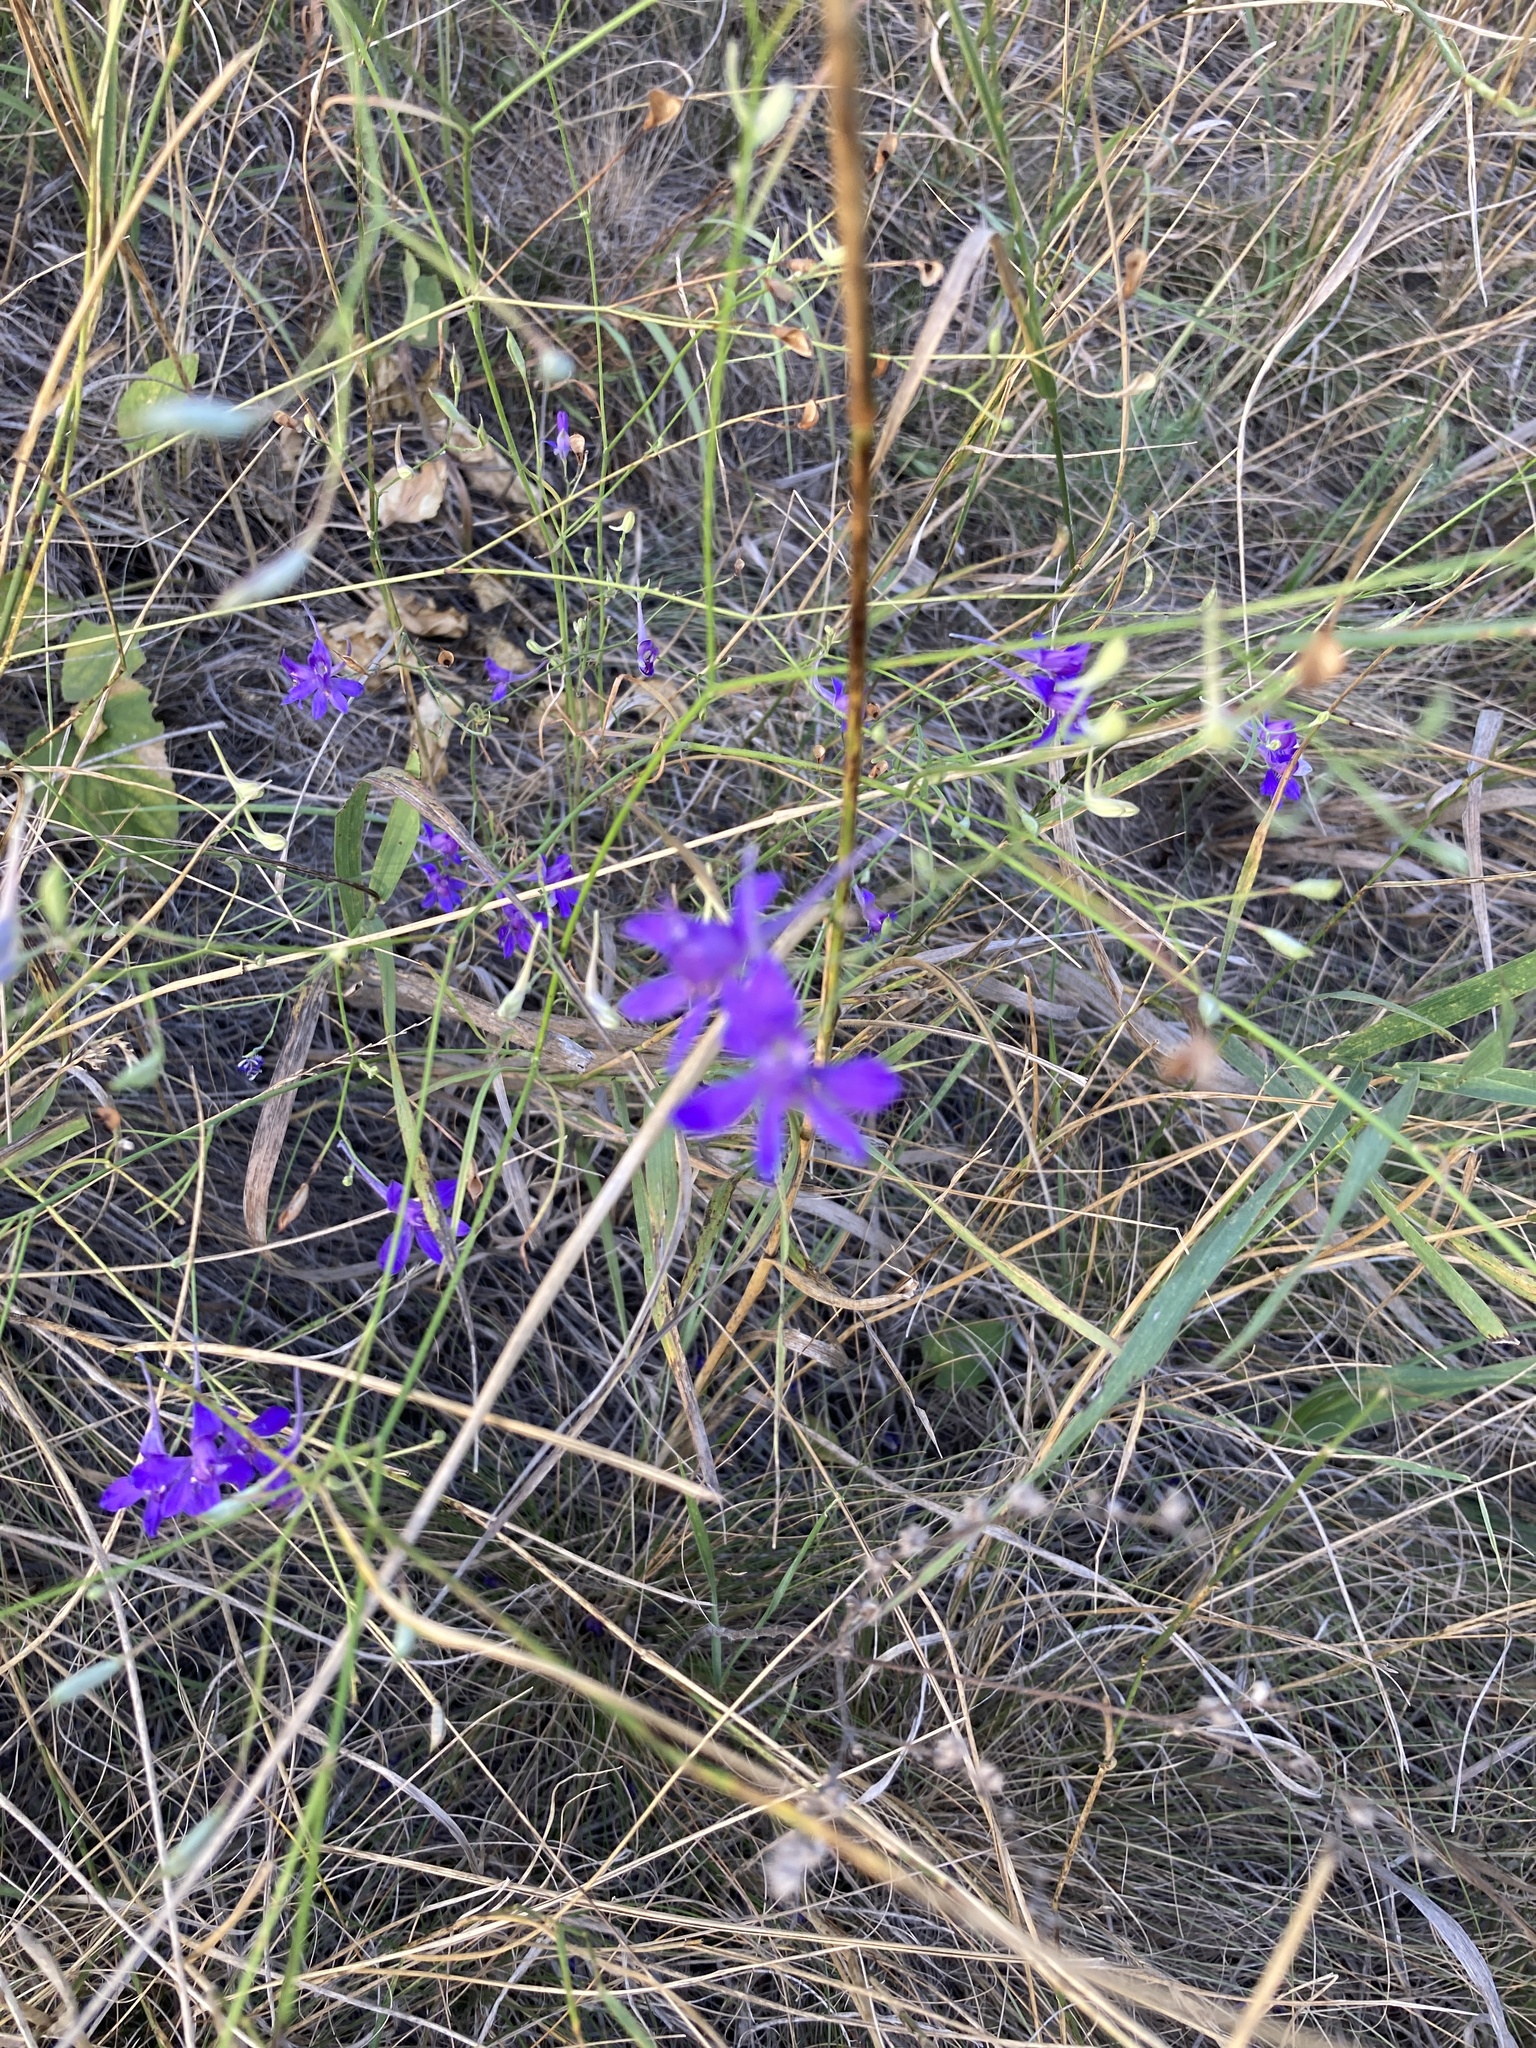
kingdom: Plantae
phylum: Tracheophyta
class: Magnoliopsida
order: Ranunculales
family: Ranunculaceae
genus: Delphinium
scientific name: Delphinium consolida
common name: Branching larkspur
